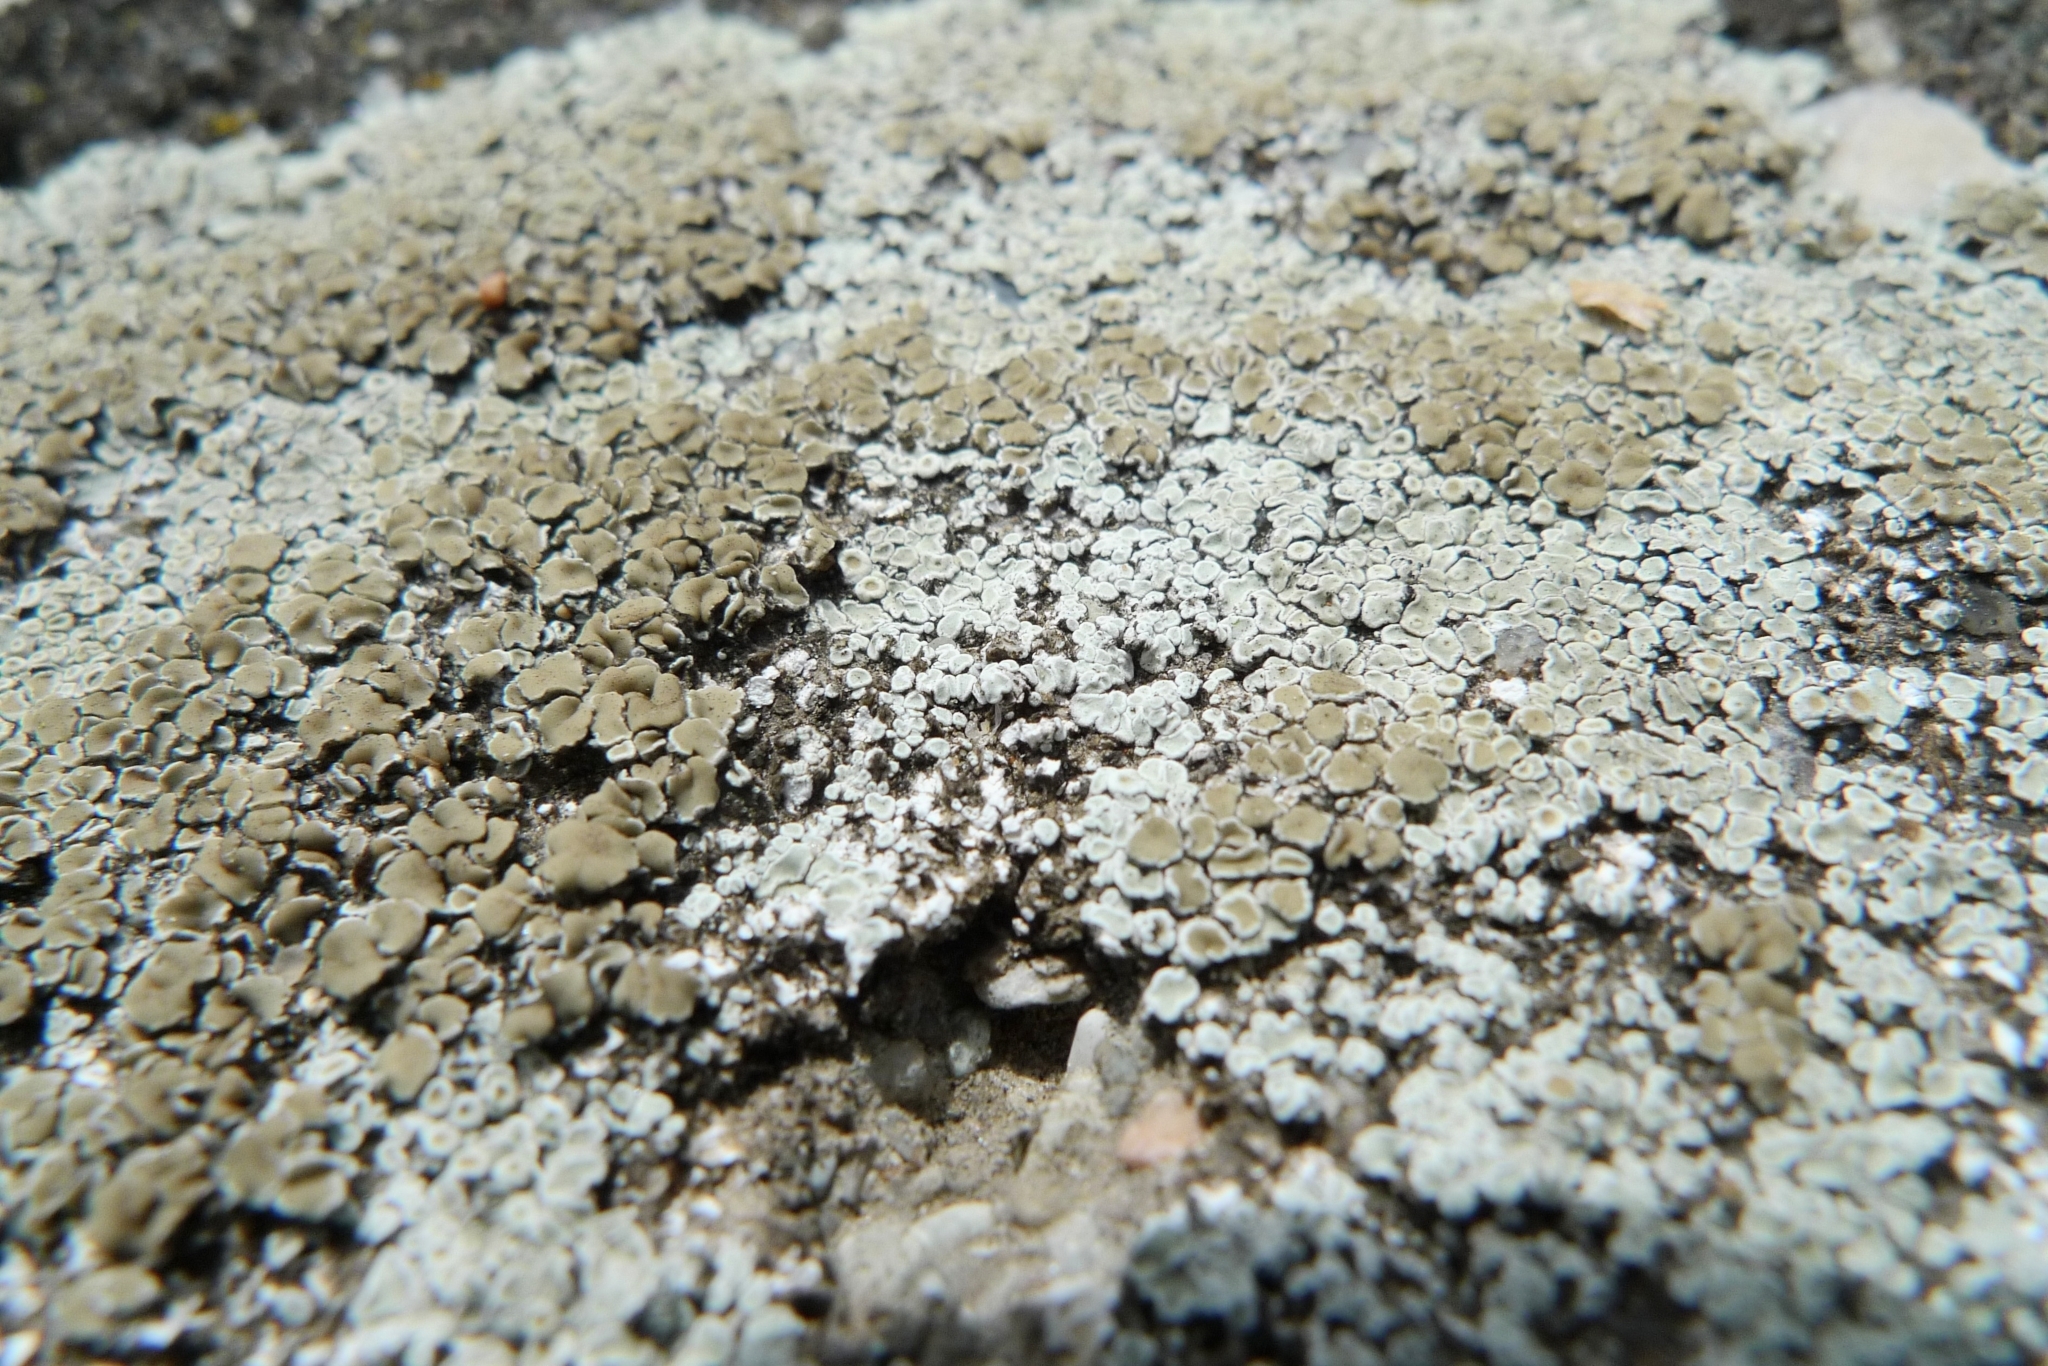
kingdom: Fungi
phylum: Ascomycota
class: Lecanoromycetes
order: Lecanorales
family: Lecanoraceae
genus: Protoparmeliopsis
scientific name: Protoparmeliopsis muralis
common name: Stonewall rim lichen
